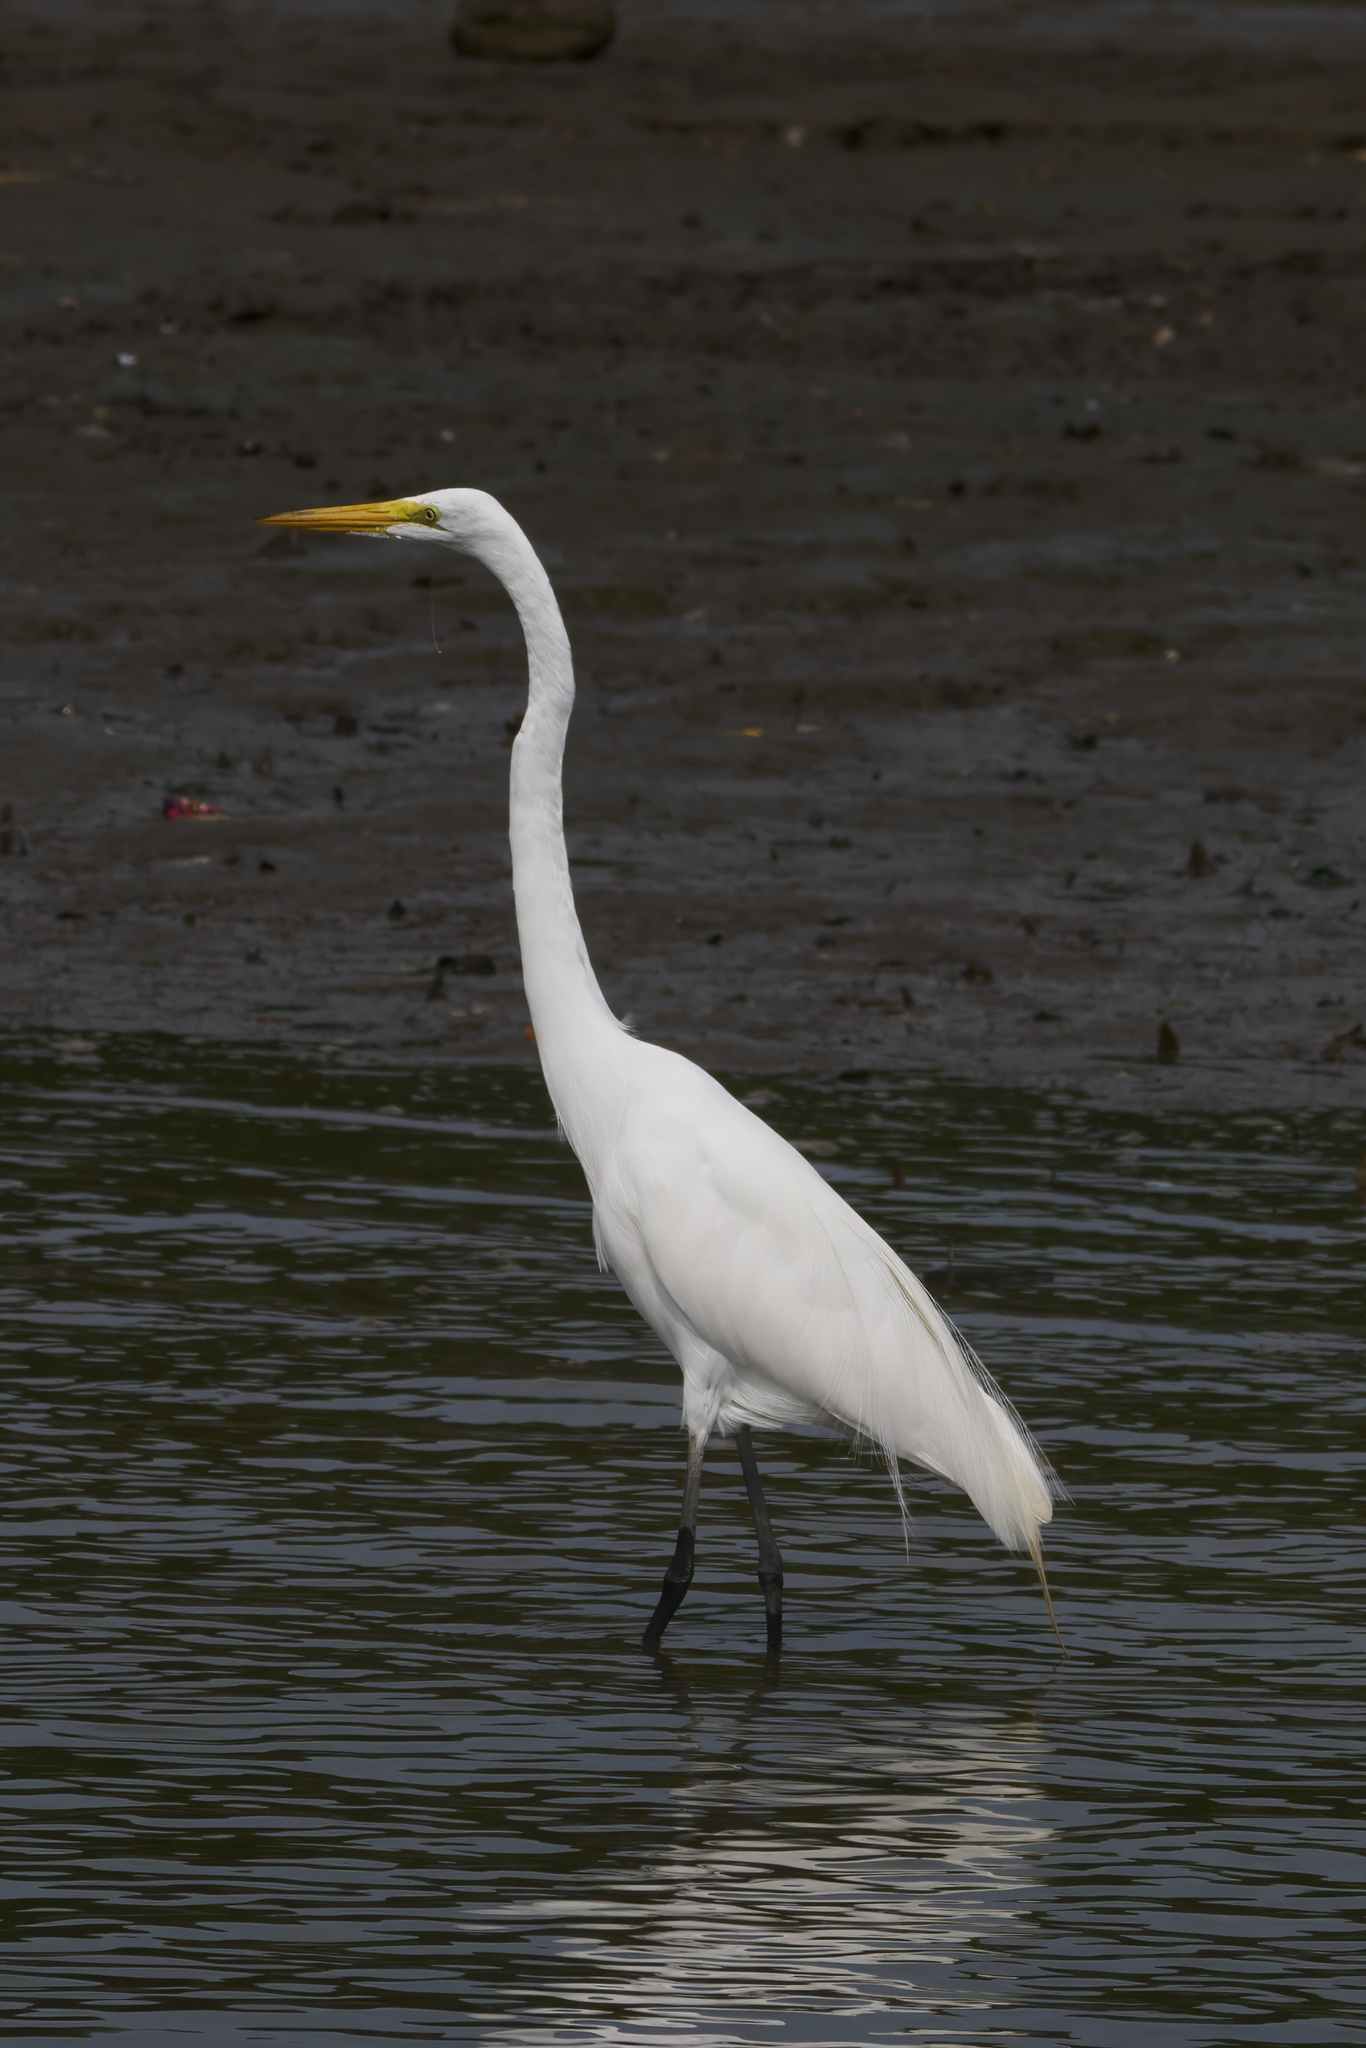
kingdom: Animalia
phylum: Chordata
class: Aves
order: Pelecaniformes
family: Ardeidae
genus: Ardea
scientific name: Ardea alba
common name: Great egret
